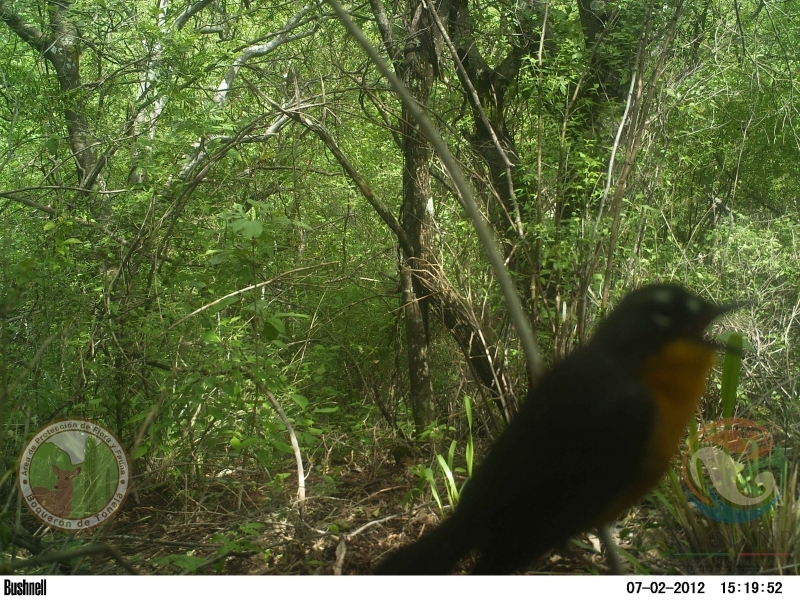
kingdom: Animalia
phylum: Chordata
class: Aves
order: Passeriformes
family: Parulidae
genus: Basileuterus
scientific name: Basileuterus lachrymosus
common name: Fan-tailed warbler
